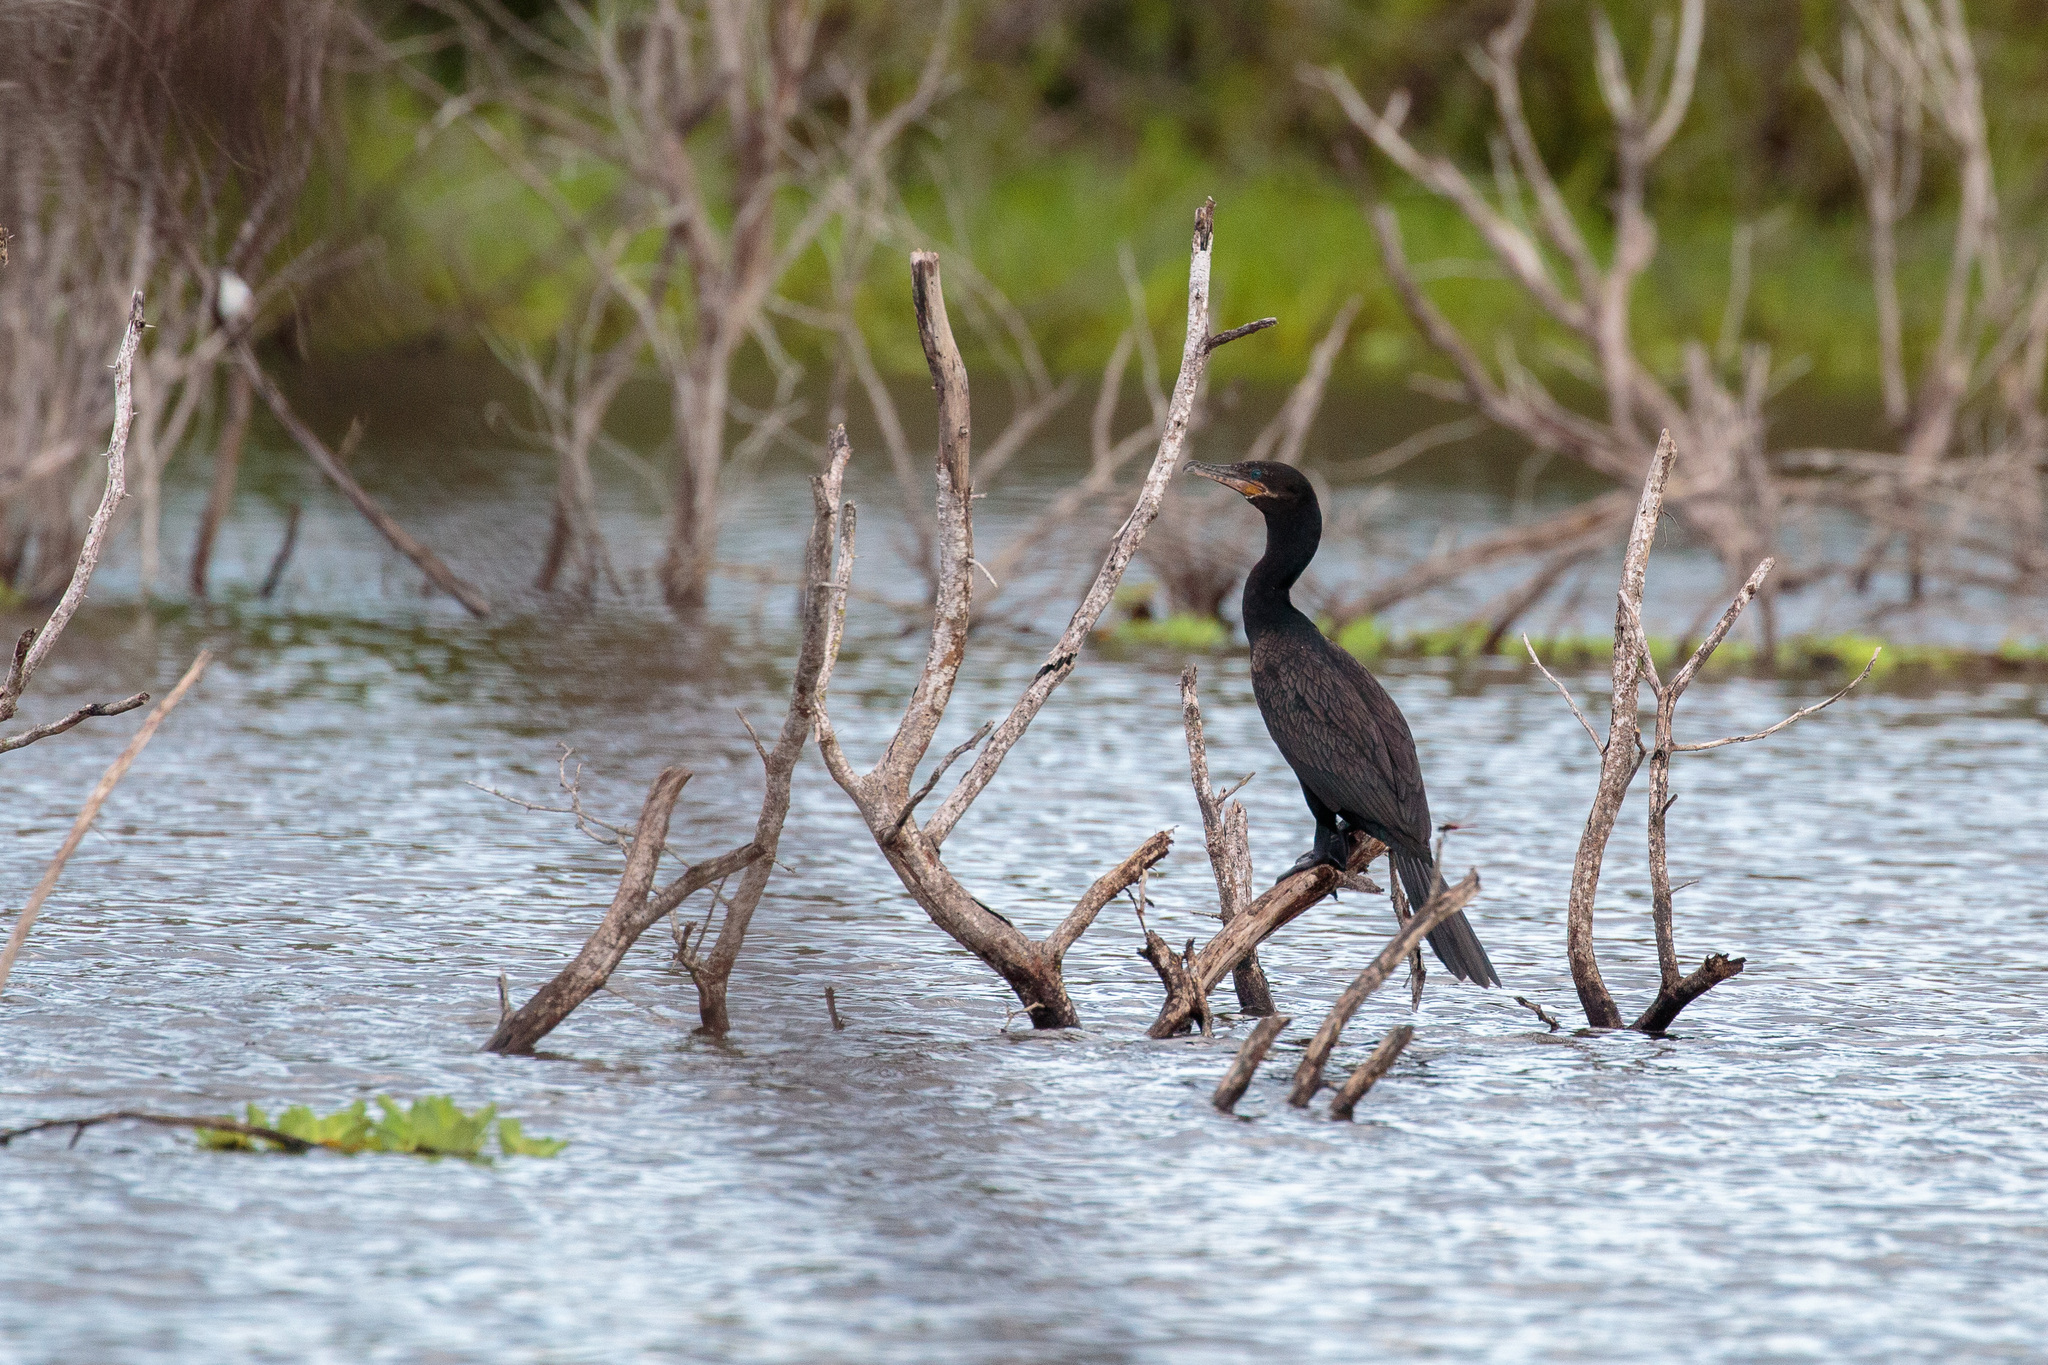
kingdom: Animalia
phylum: Chordata
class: Aves
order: Suliformes
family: Phalacrocoracidae
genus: Phalacrocorax
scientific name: Phalacrocorax brasilianus
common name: Neotropic cormorant
